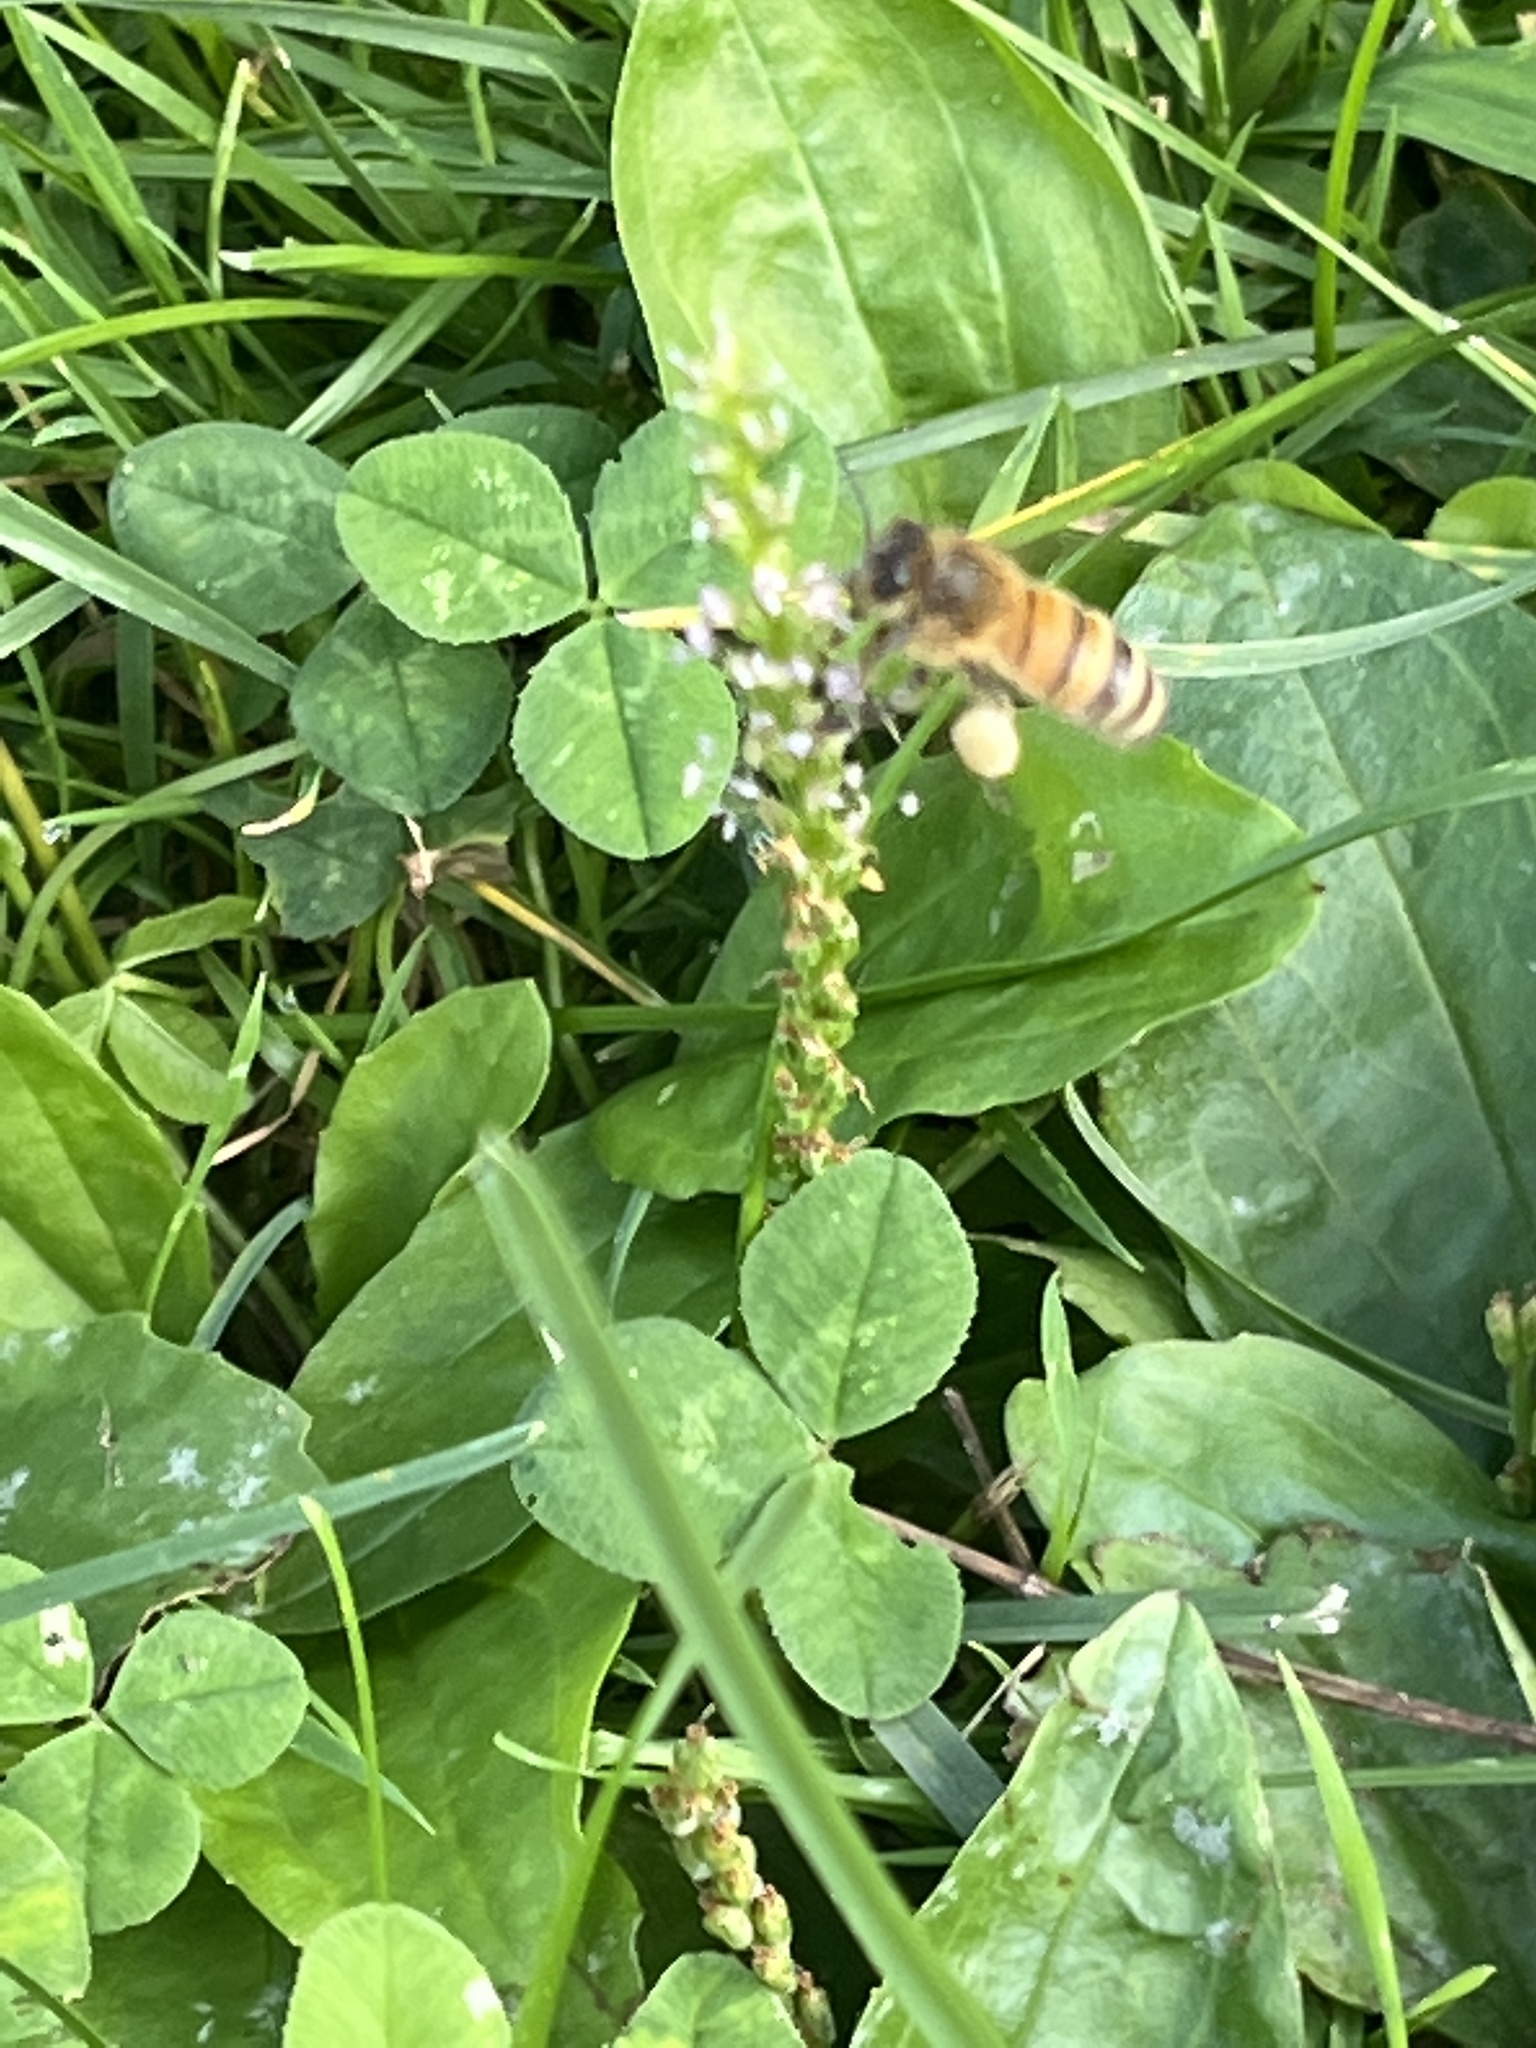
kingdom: Animalia
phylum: Arthropoda
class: Insecta
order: Hymenoptera
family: Apidae
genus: Apis
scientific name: Apis mellifera
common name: Honey bee
